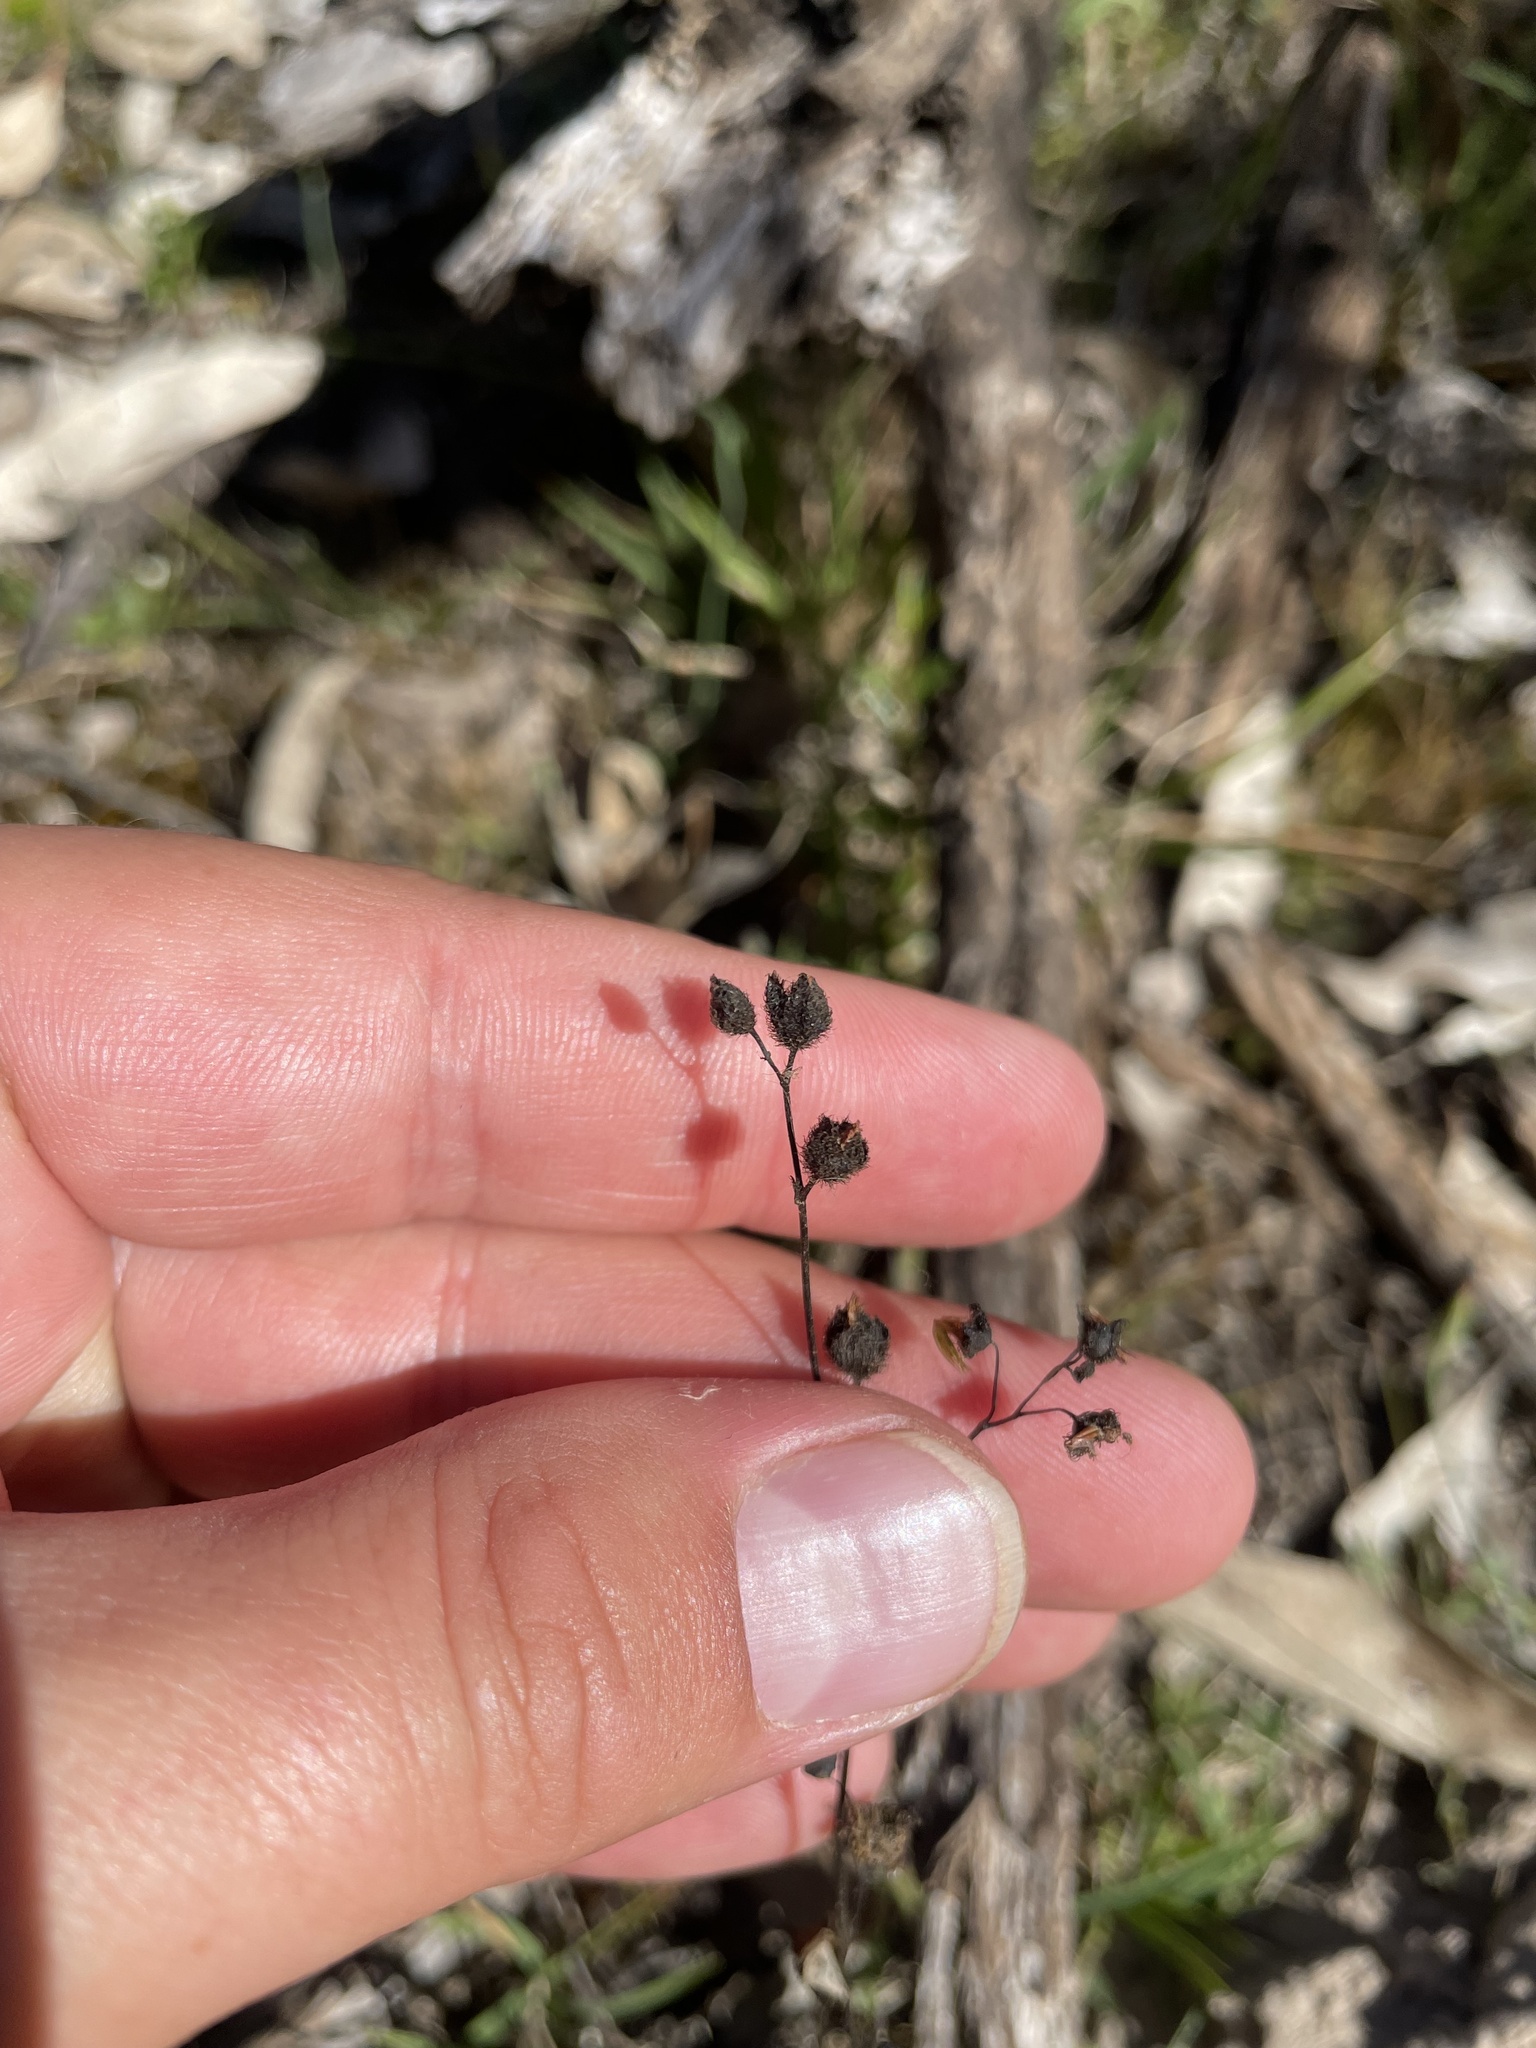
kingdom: Plantae
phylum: Tracheophyta
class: Magnoliopsida
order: Caryophyllales
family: Droseraceae
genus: Drosera
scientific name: Drosera gunniana
